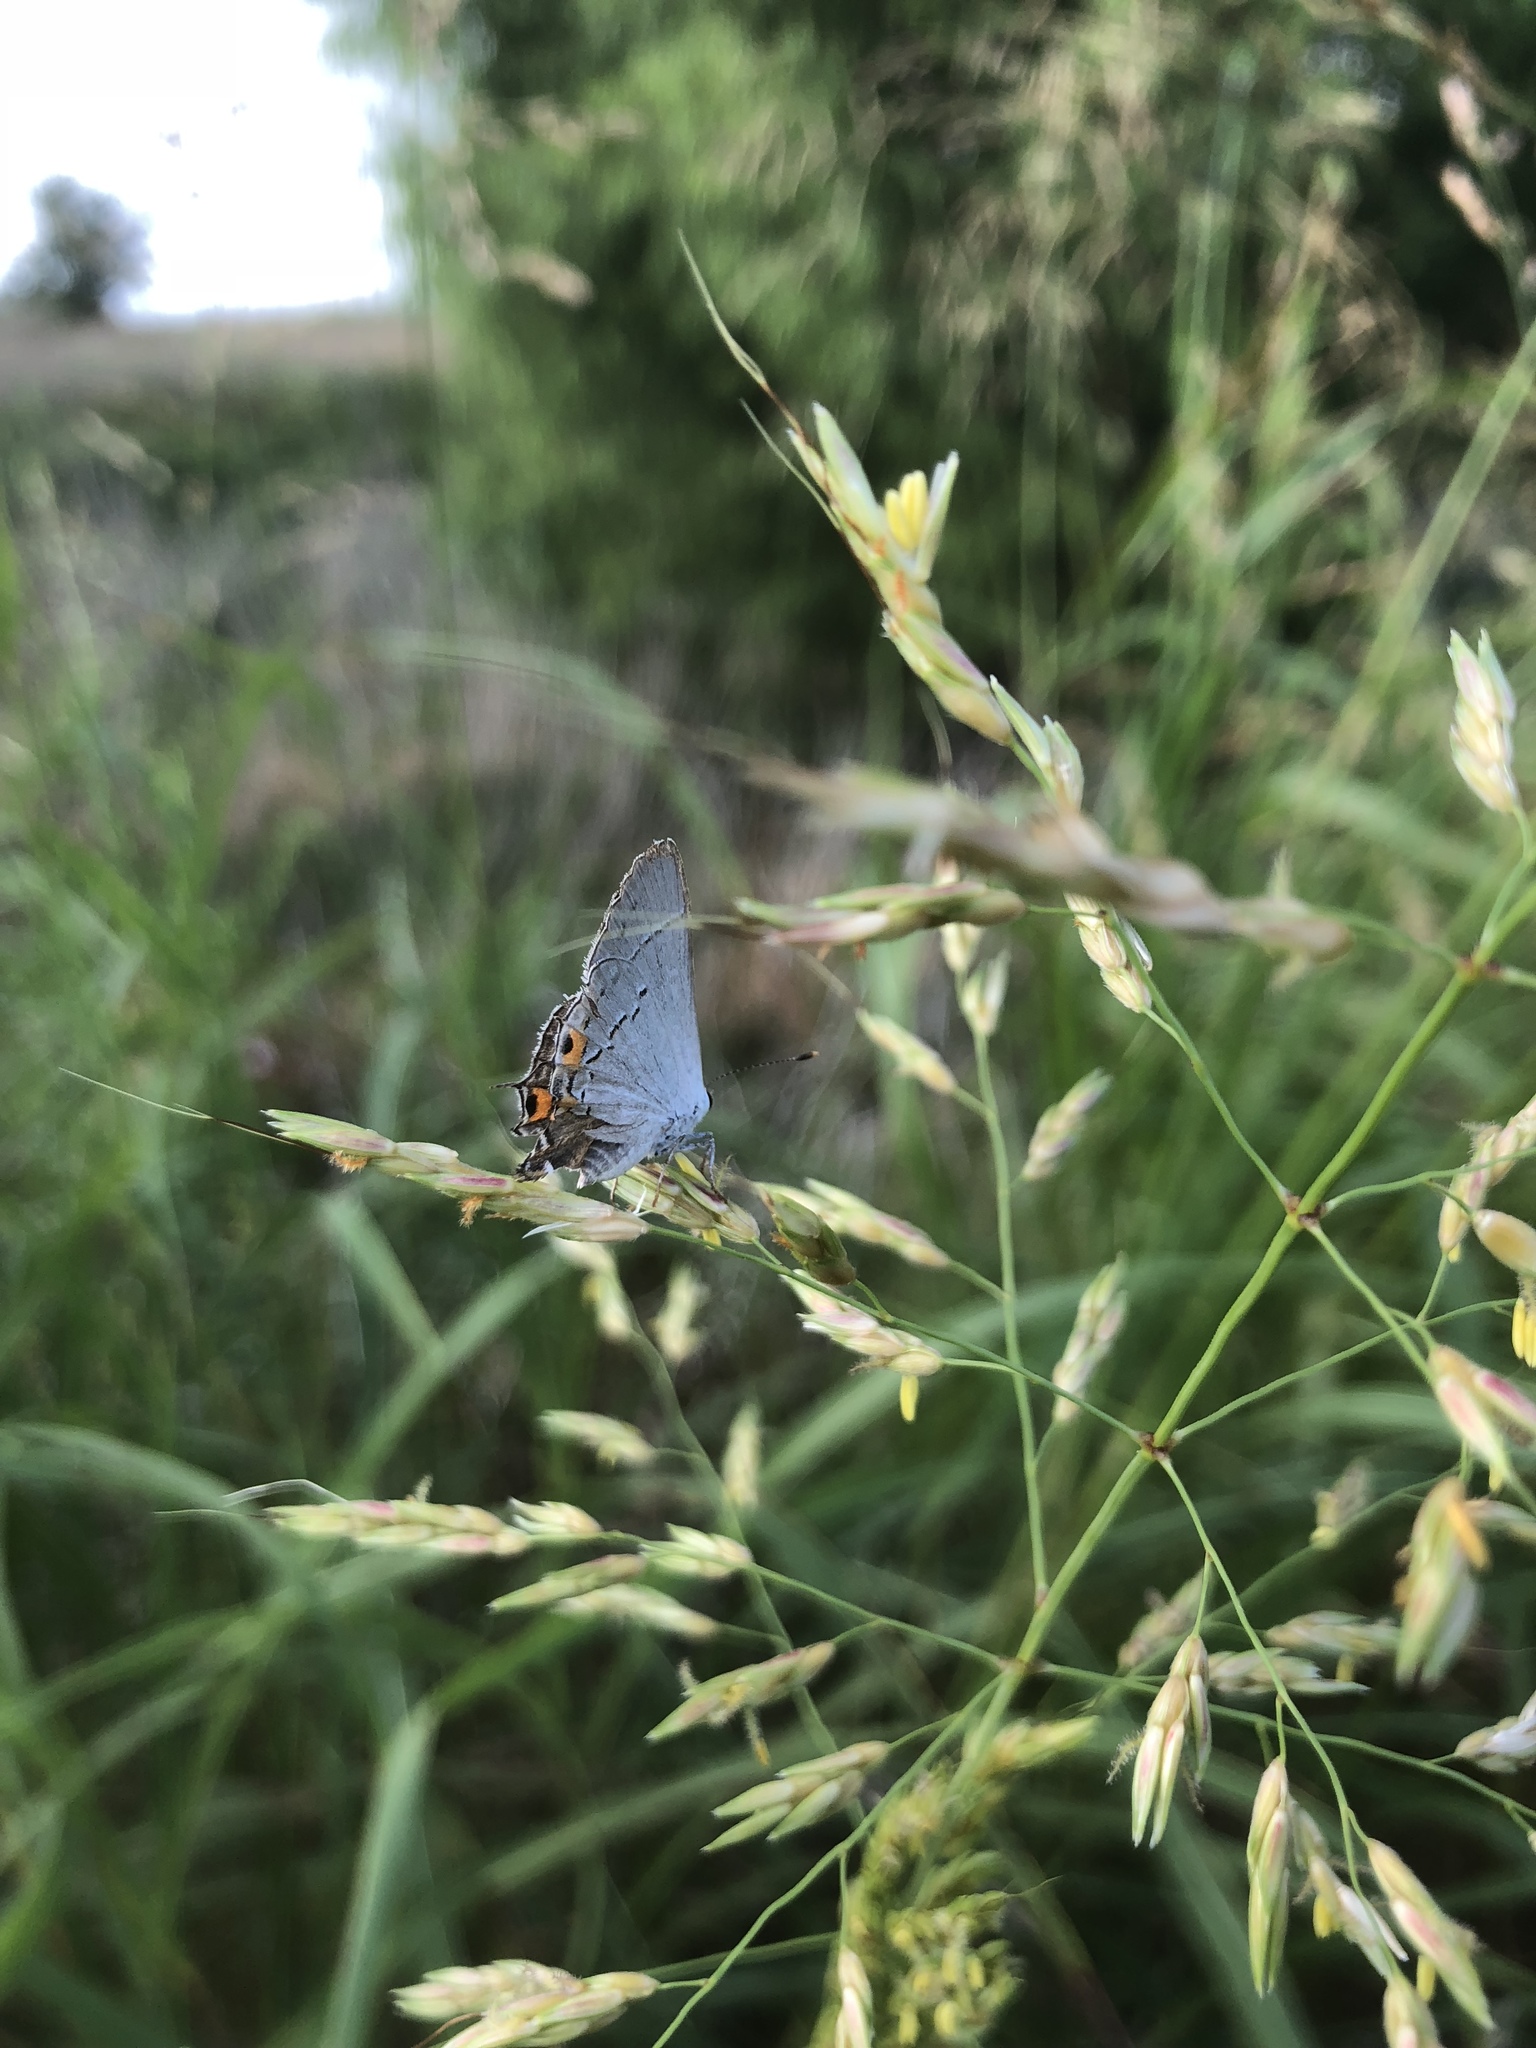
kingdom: Animalia
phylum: Arthropoda
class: Insecta
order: Lepidoptera
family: Lycaenidae
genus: Strymon
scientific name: Strymon melinus
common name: Gray hairstreak
